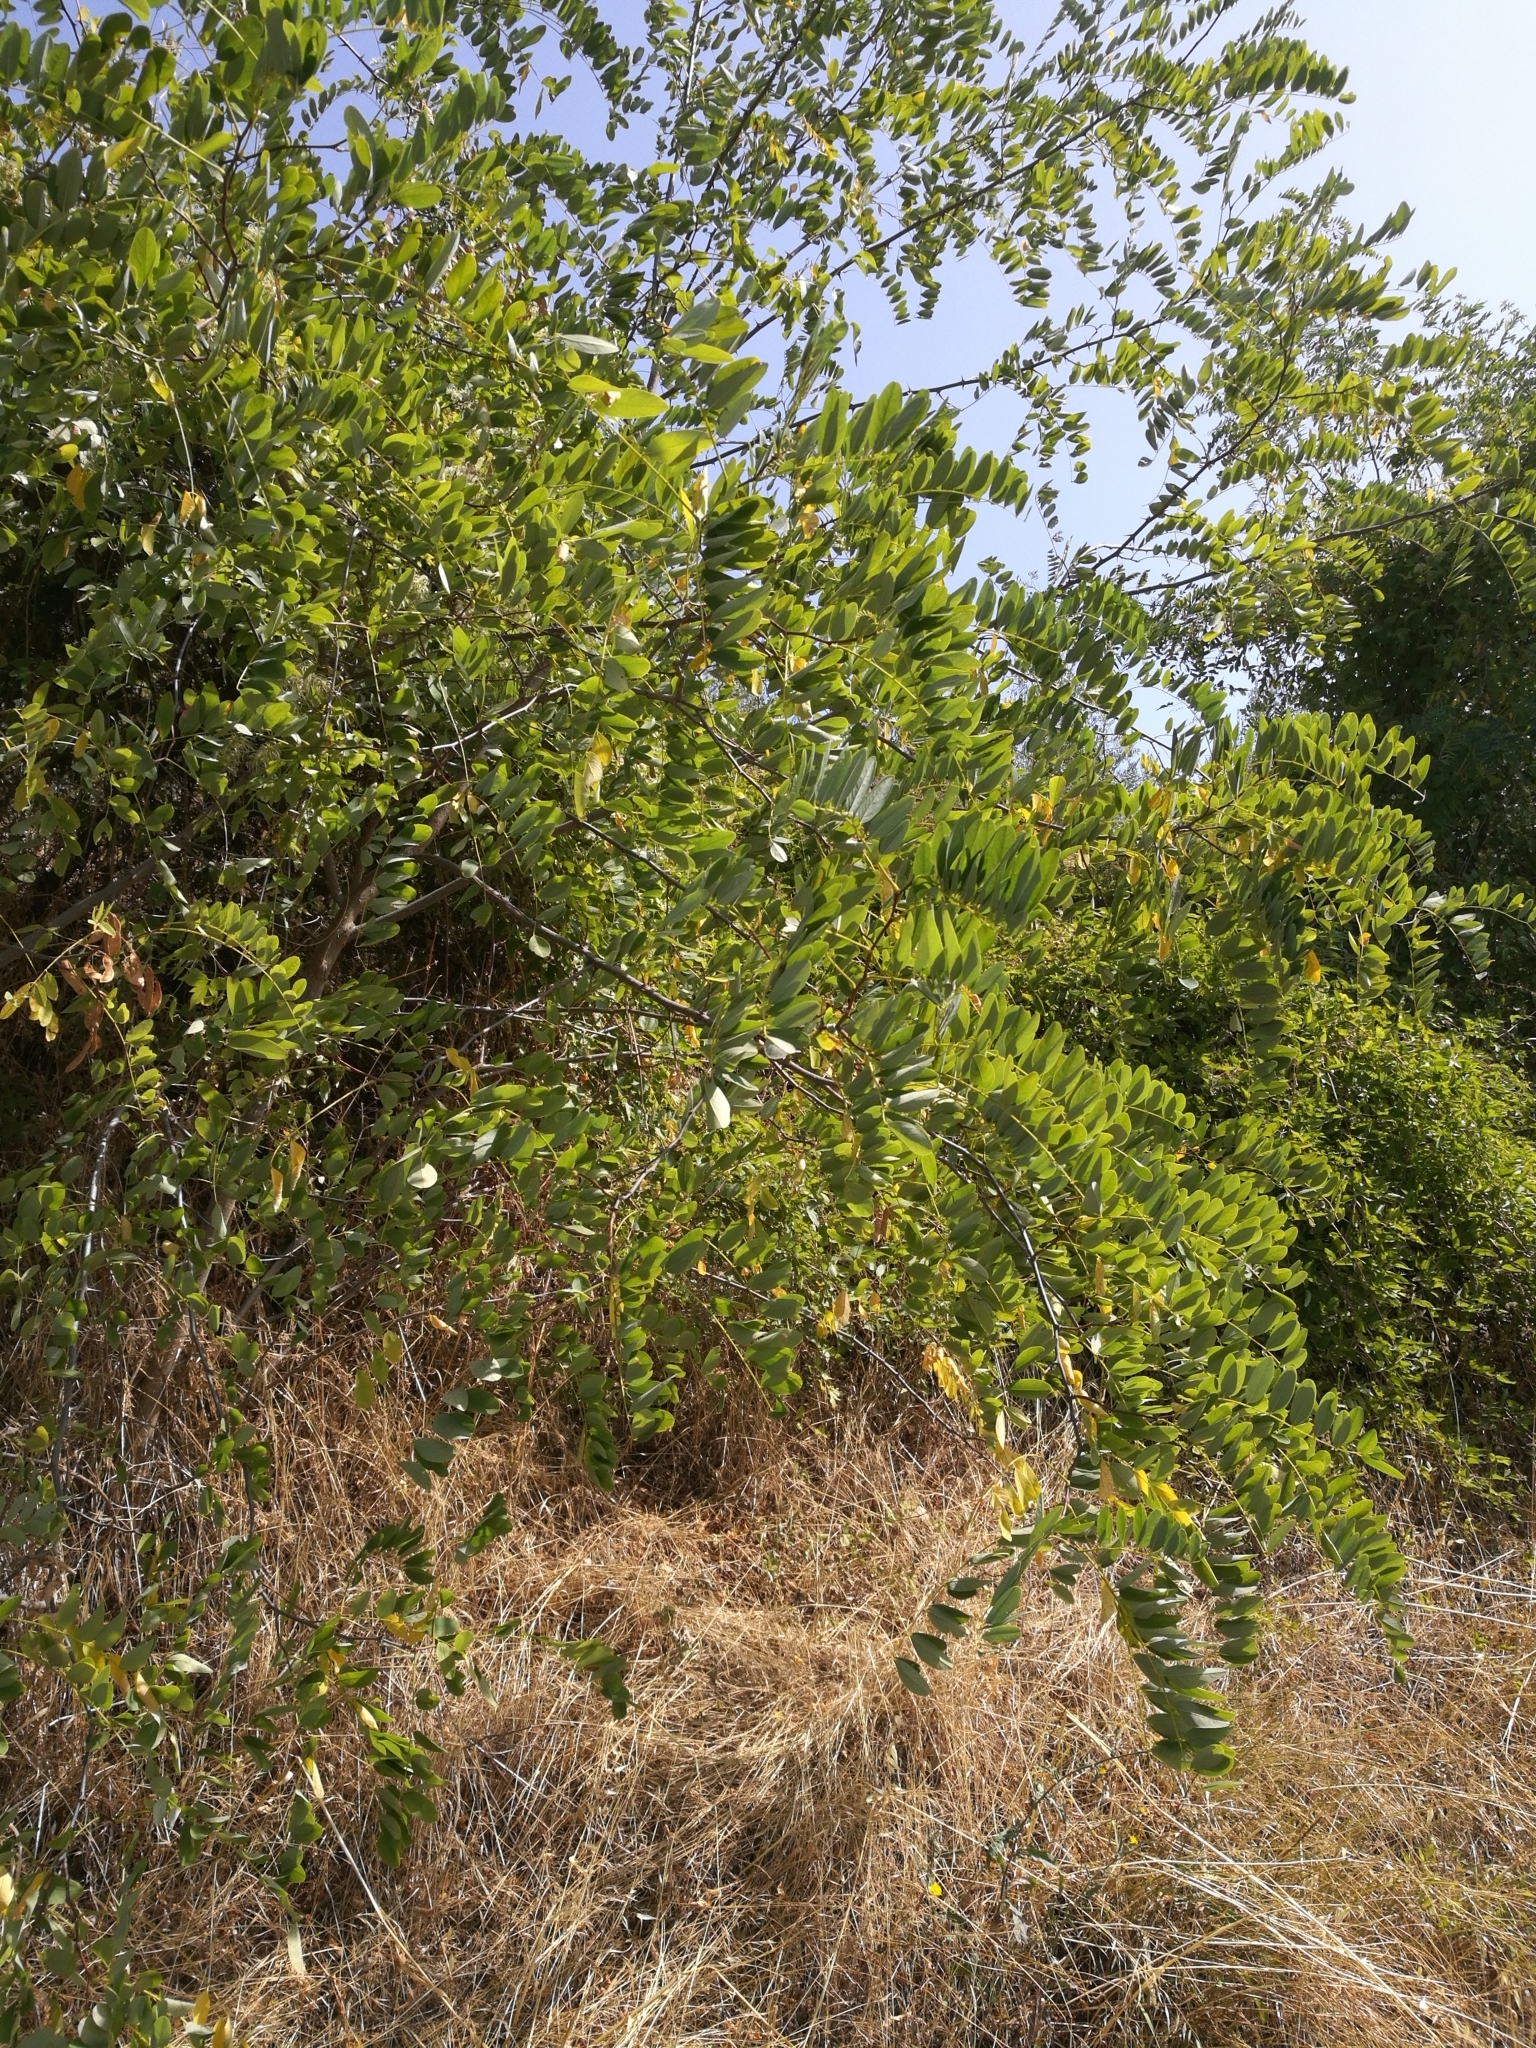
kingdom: Plantae
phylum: Tracheophyta
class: Magnoliopsida
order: Fabales
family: Fabaceae
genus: Robinia
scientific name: Robinia pseudoacacia
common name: Black locust
